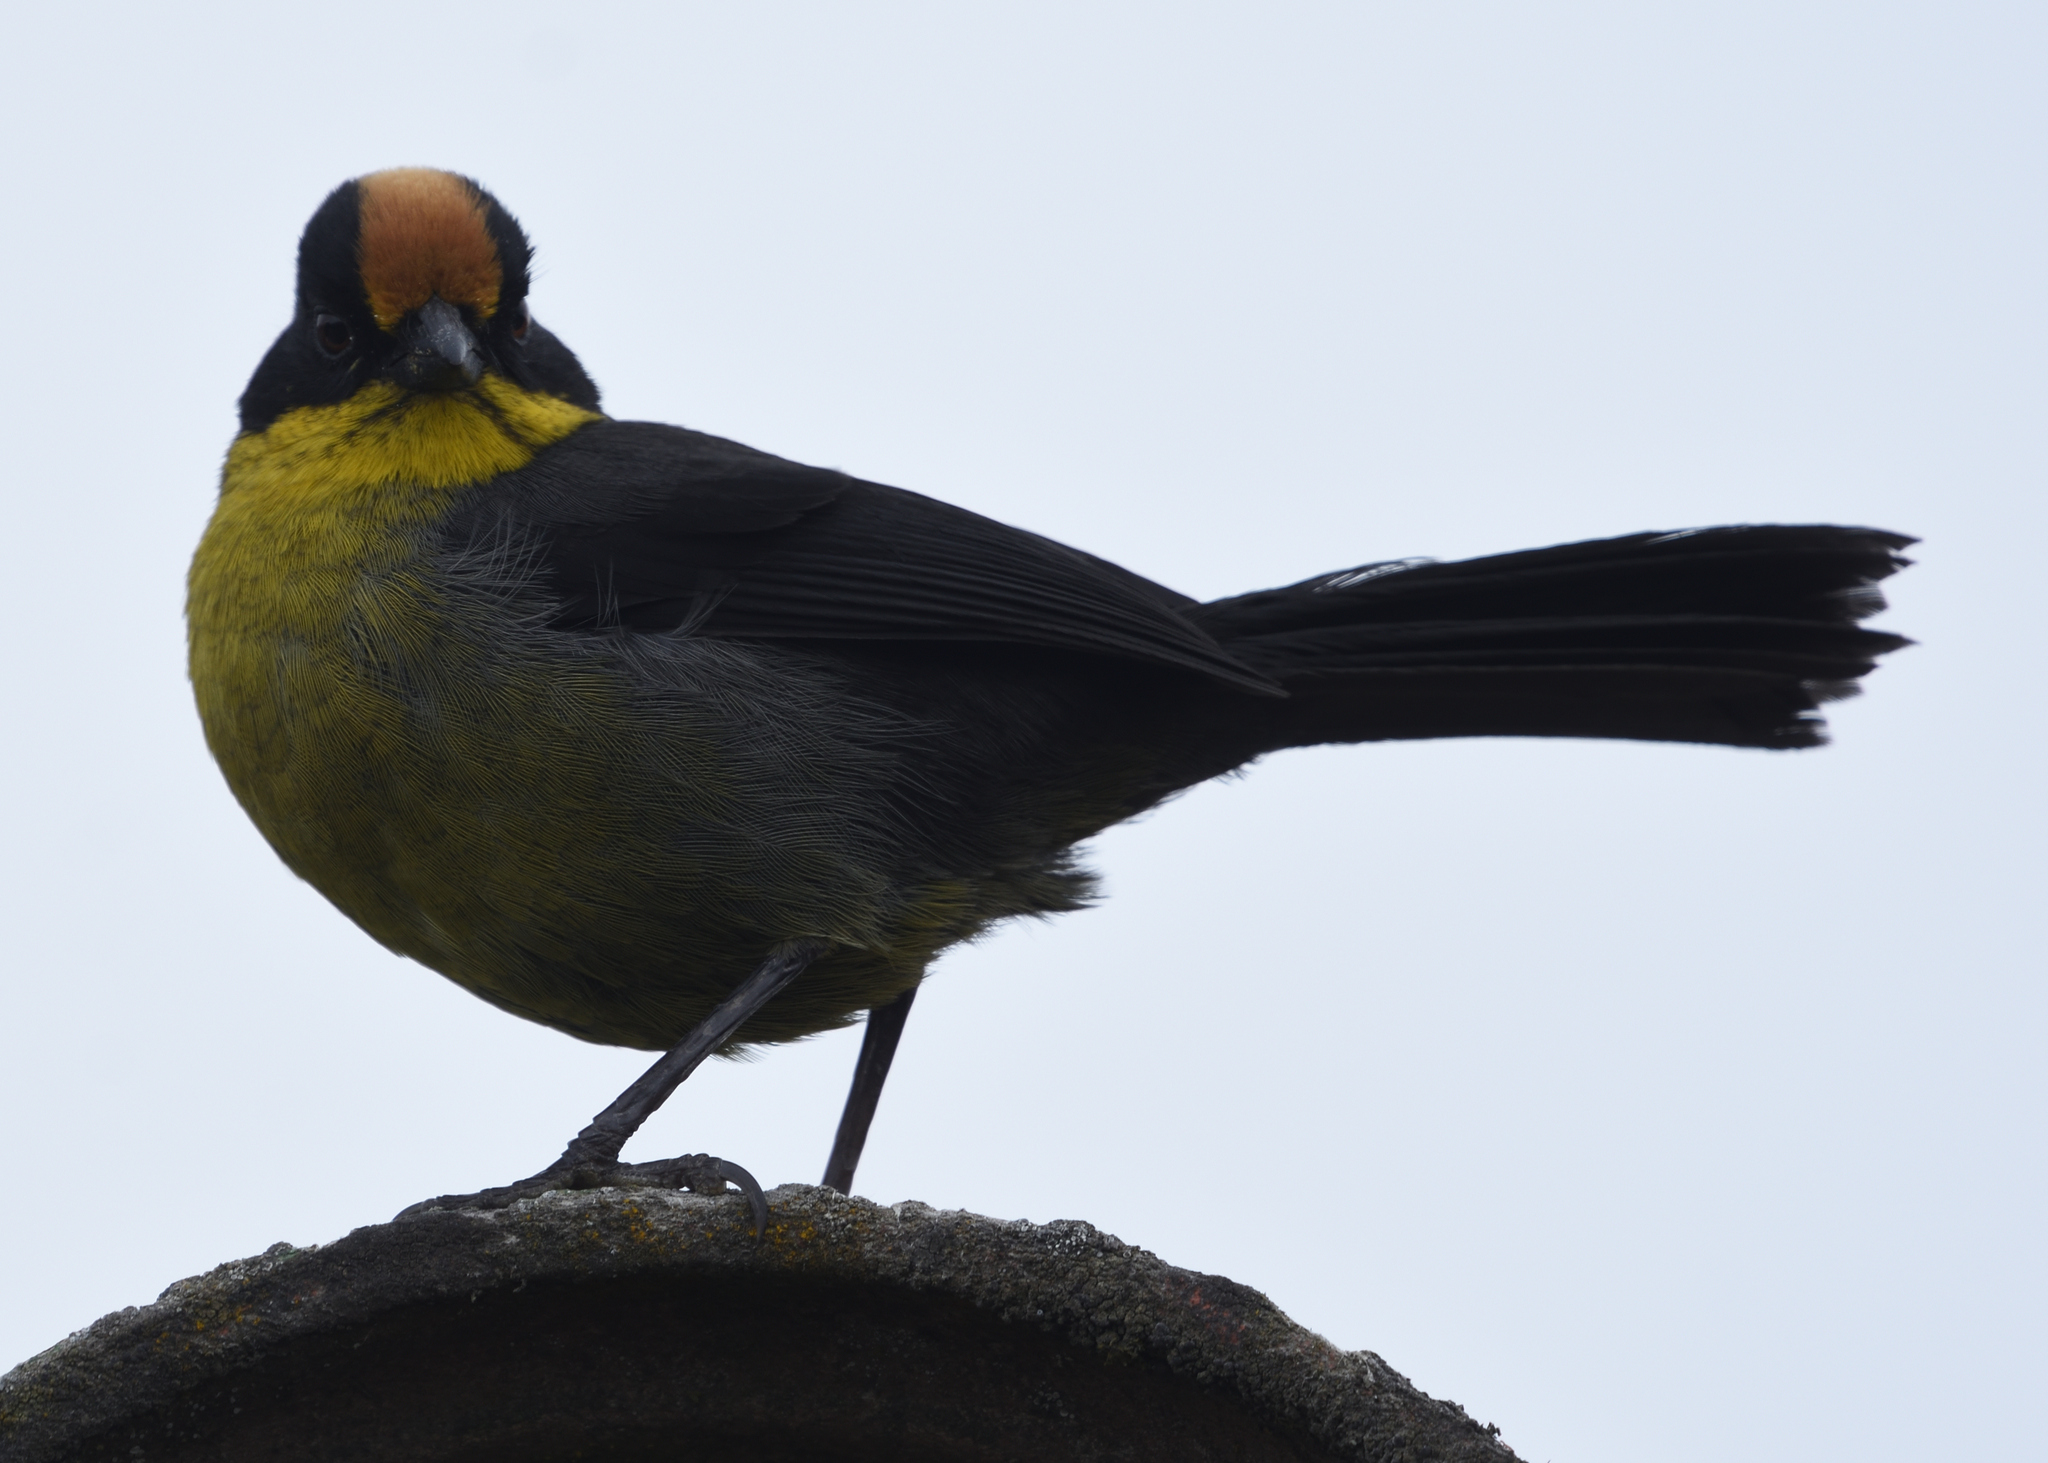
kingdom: Animalia
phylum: Chordata
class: Aves
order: Passeriformes
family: Passerellidae
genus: Atlapetes
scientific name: Atlapetes pallidinucha
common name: Pale-naped brushfinch
